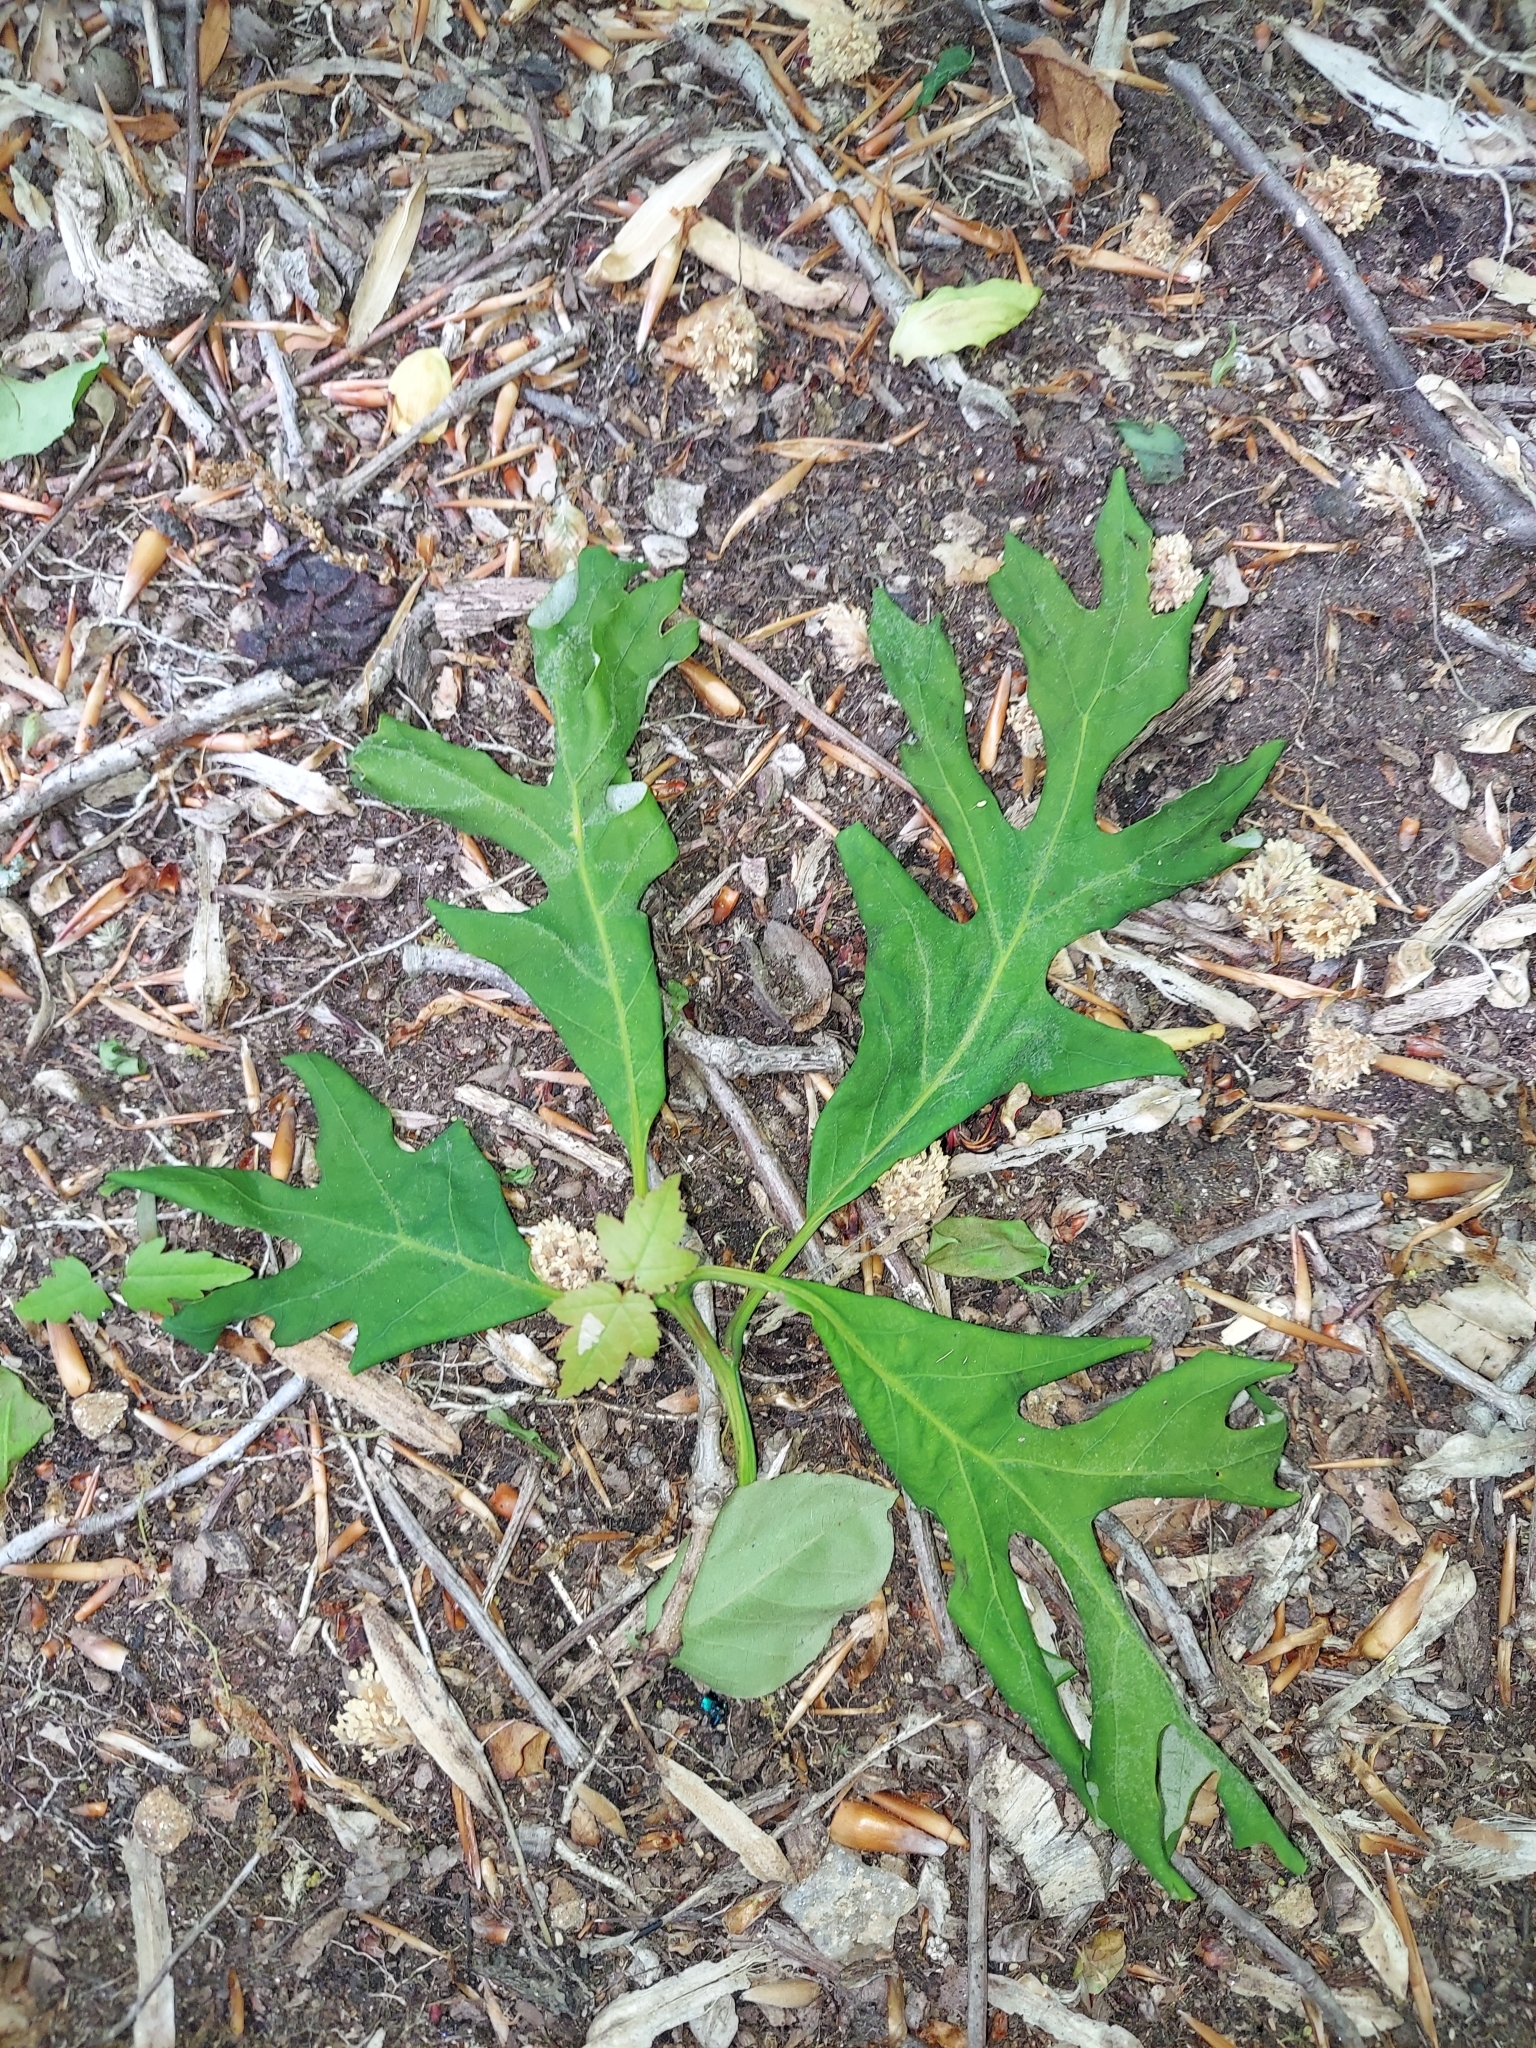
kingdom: Plantae
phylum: Tracheophyta
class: Magnoliopsida
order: Fagales
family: Fagaceae
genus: Quercus
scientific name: Quercus alba
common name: White oak
